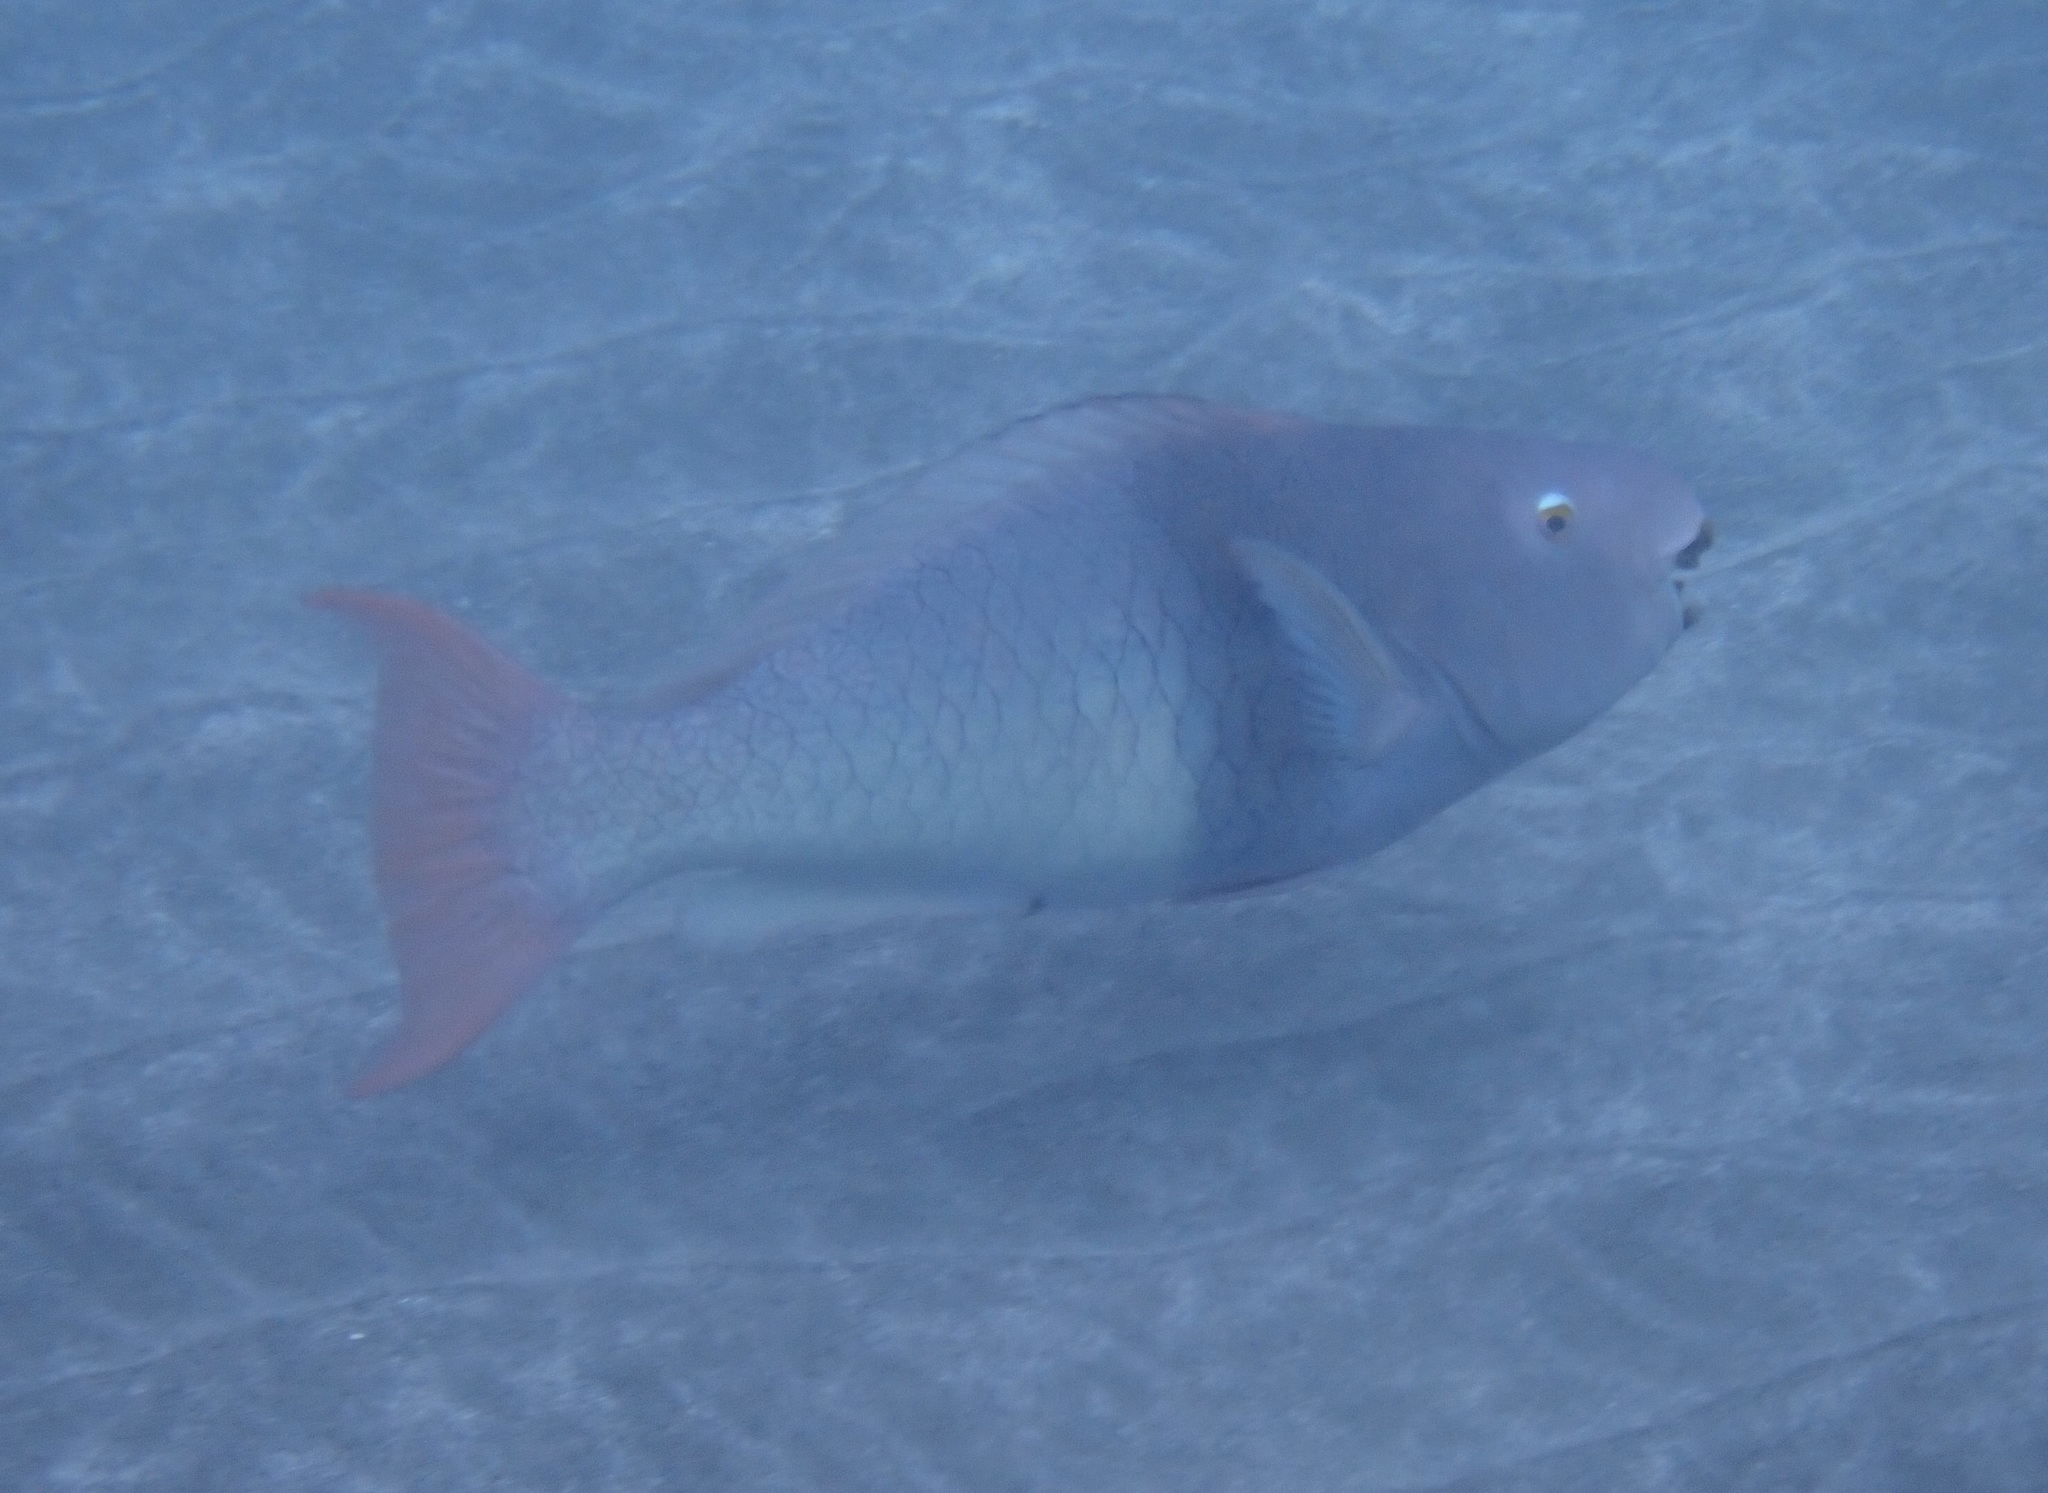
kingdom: Animalia
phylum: Chordata
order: Perciformes
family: Scaridae
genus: Scarus
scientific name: Scarus rubroviolaceus
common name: Ember parrotfish
